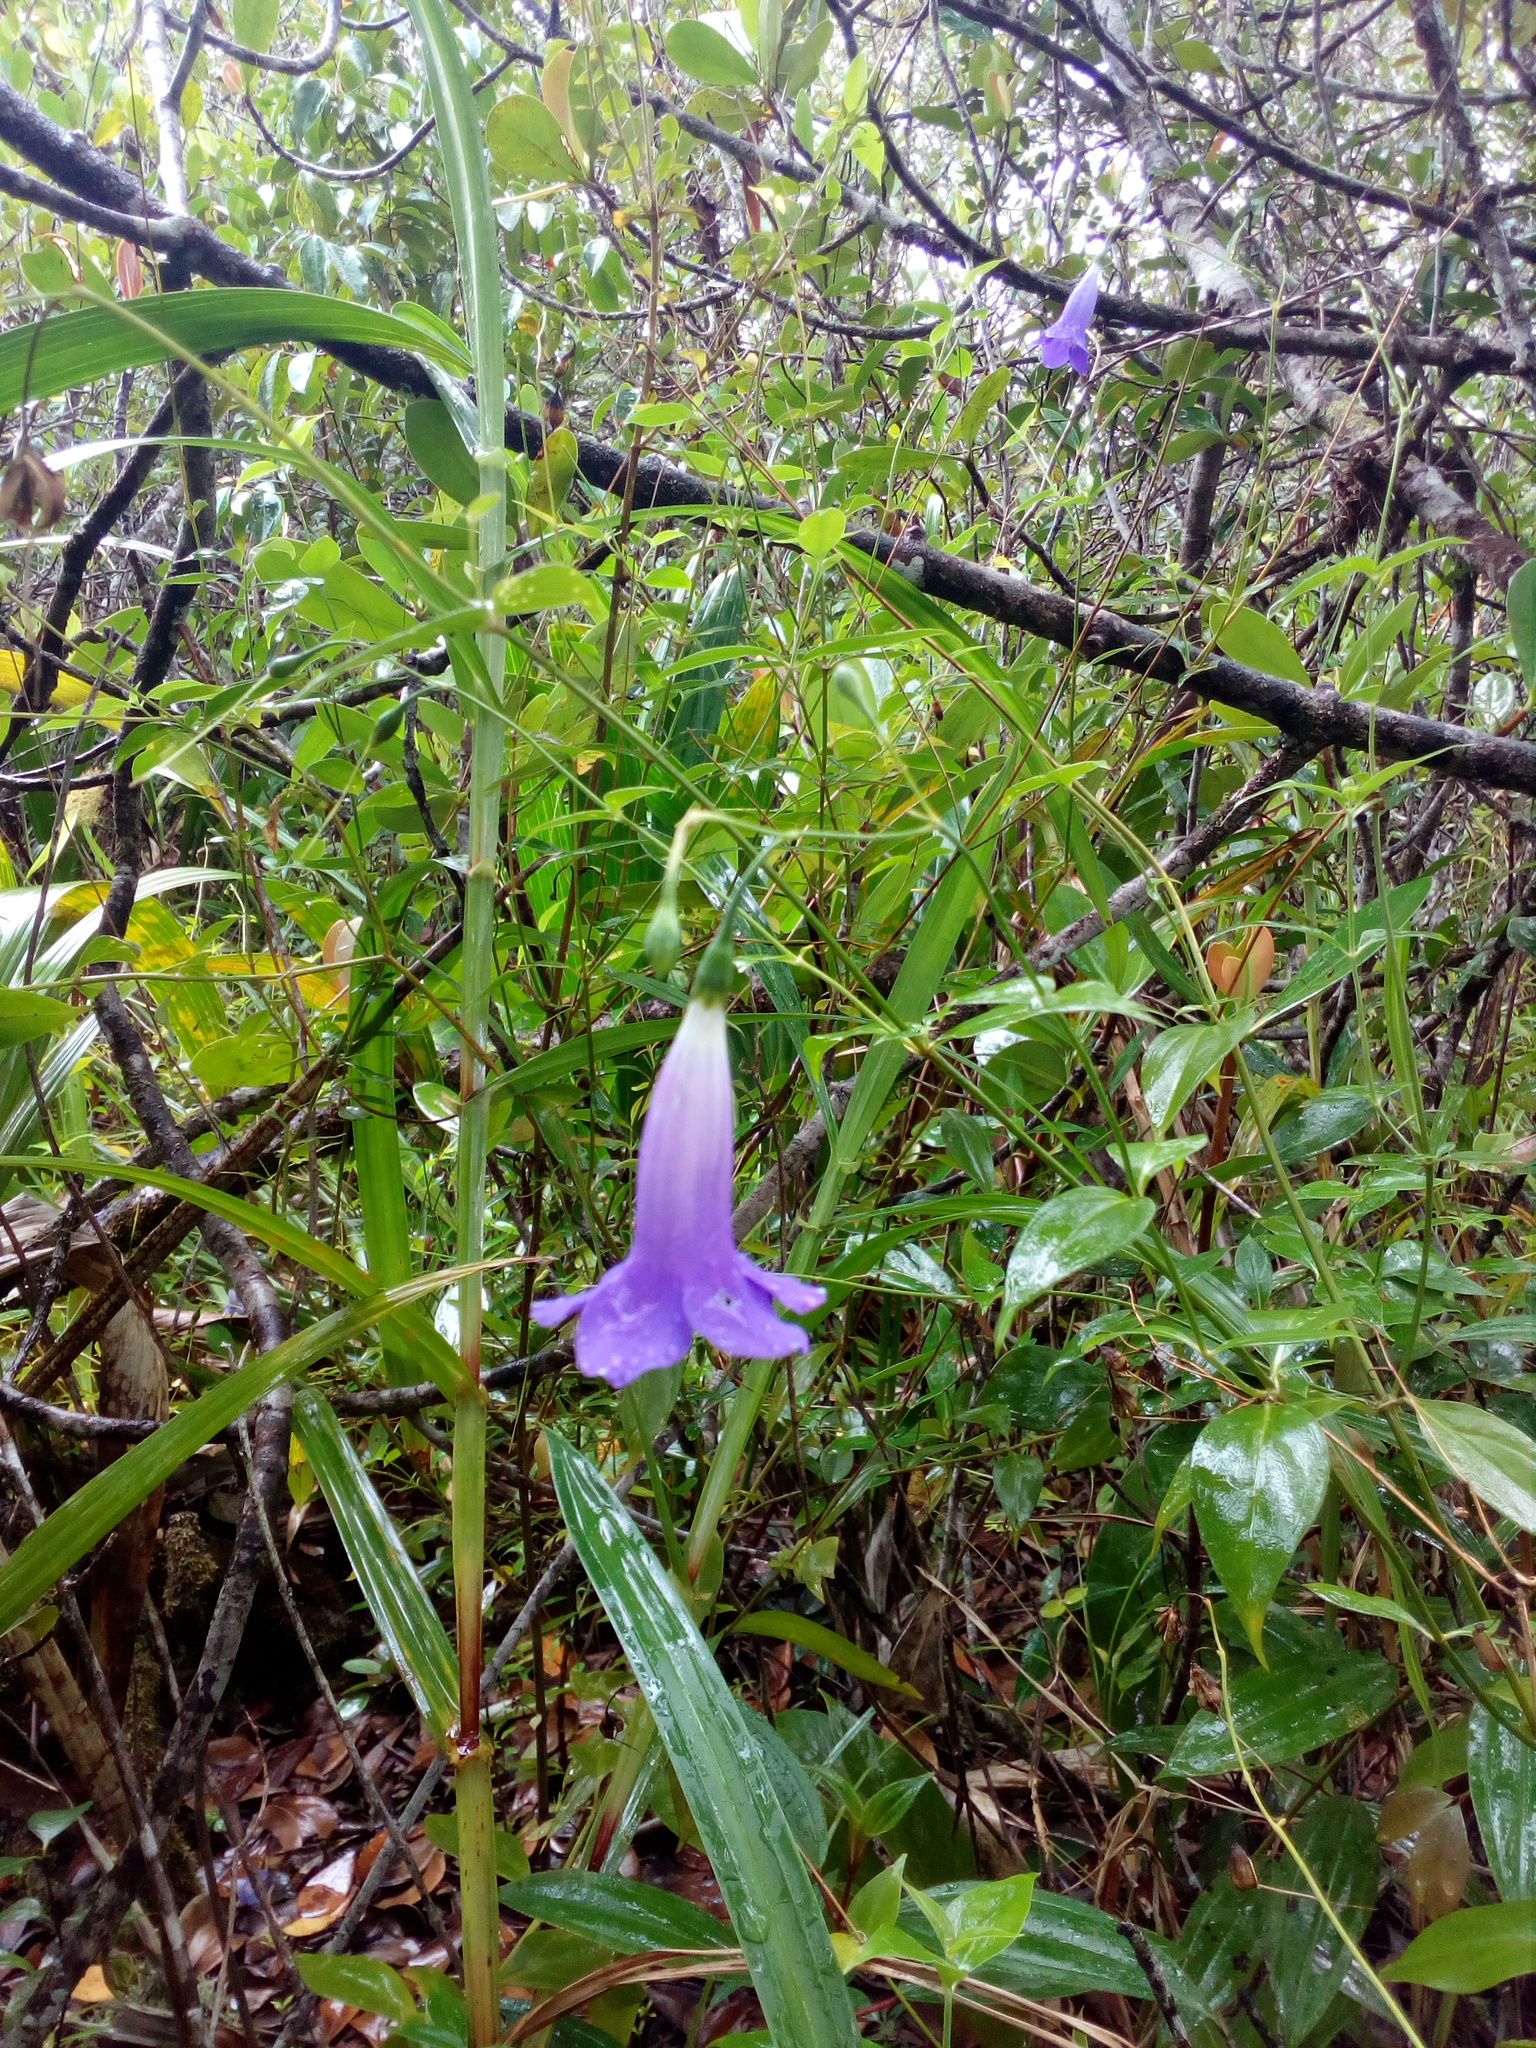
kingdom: Plantae
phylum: Tracheophyta
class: Magnoliopsida
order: Gentianales
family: Gentianaceae
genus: Chelonanthus
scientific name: Chelonanthus purpurascens
